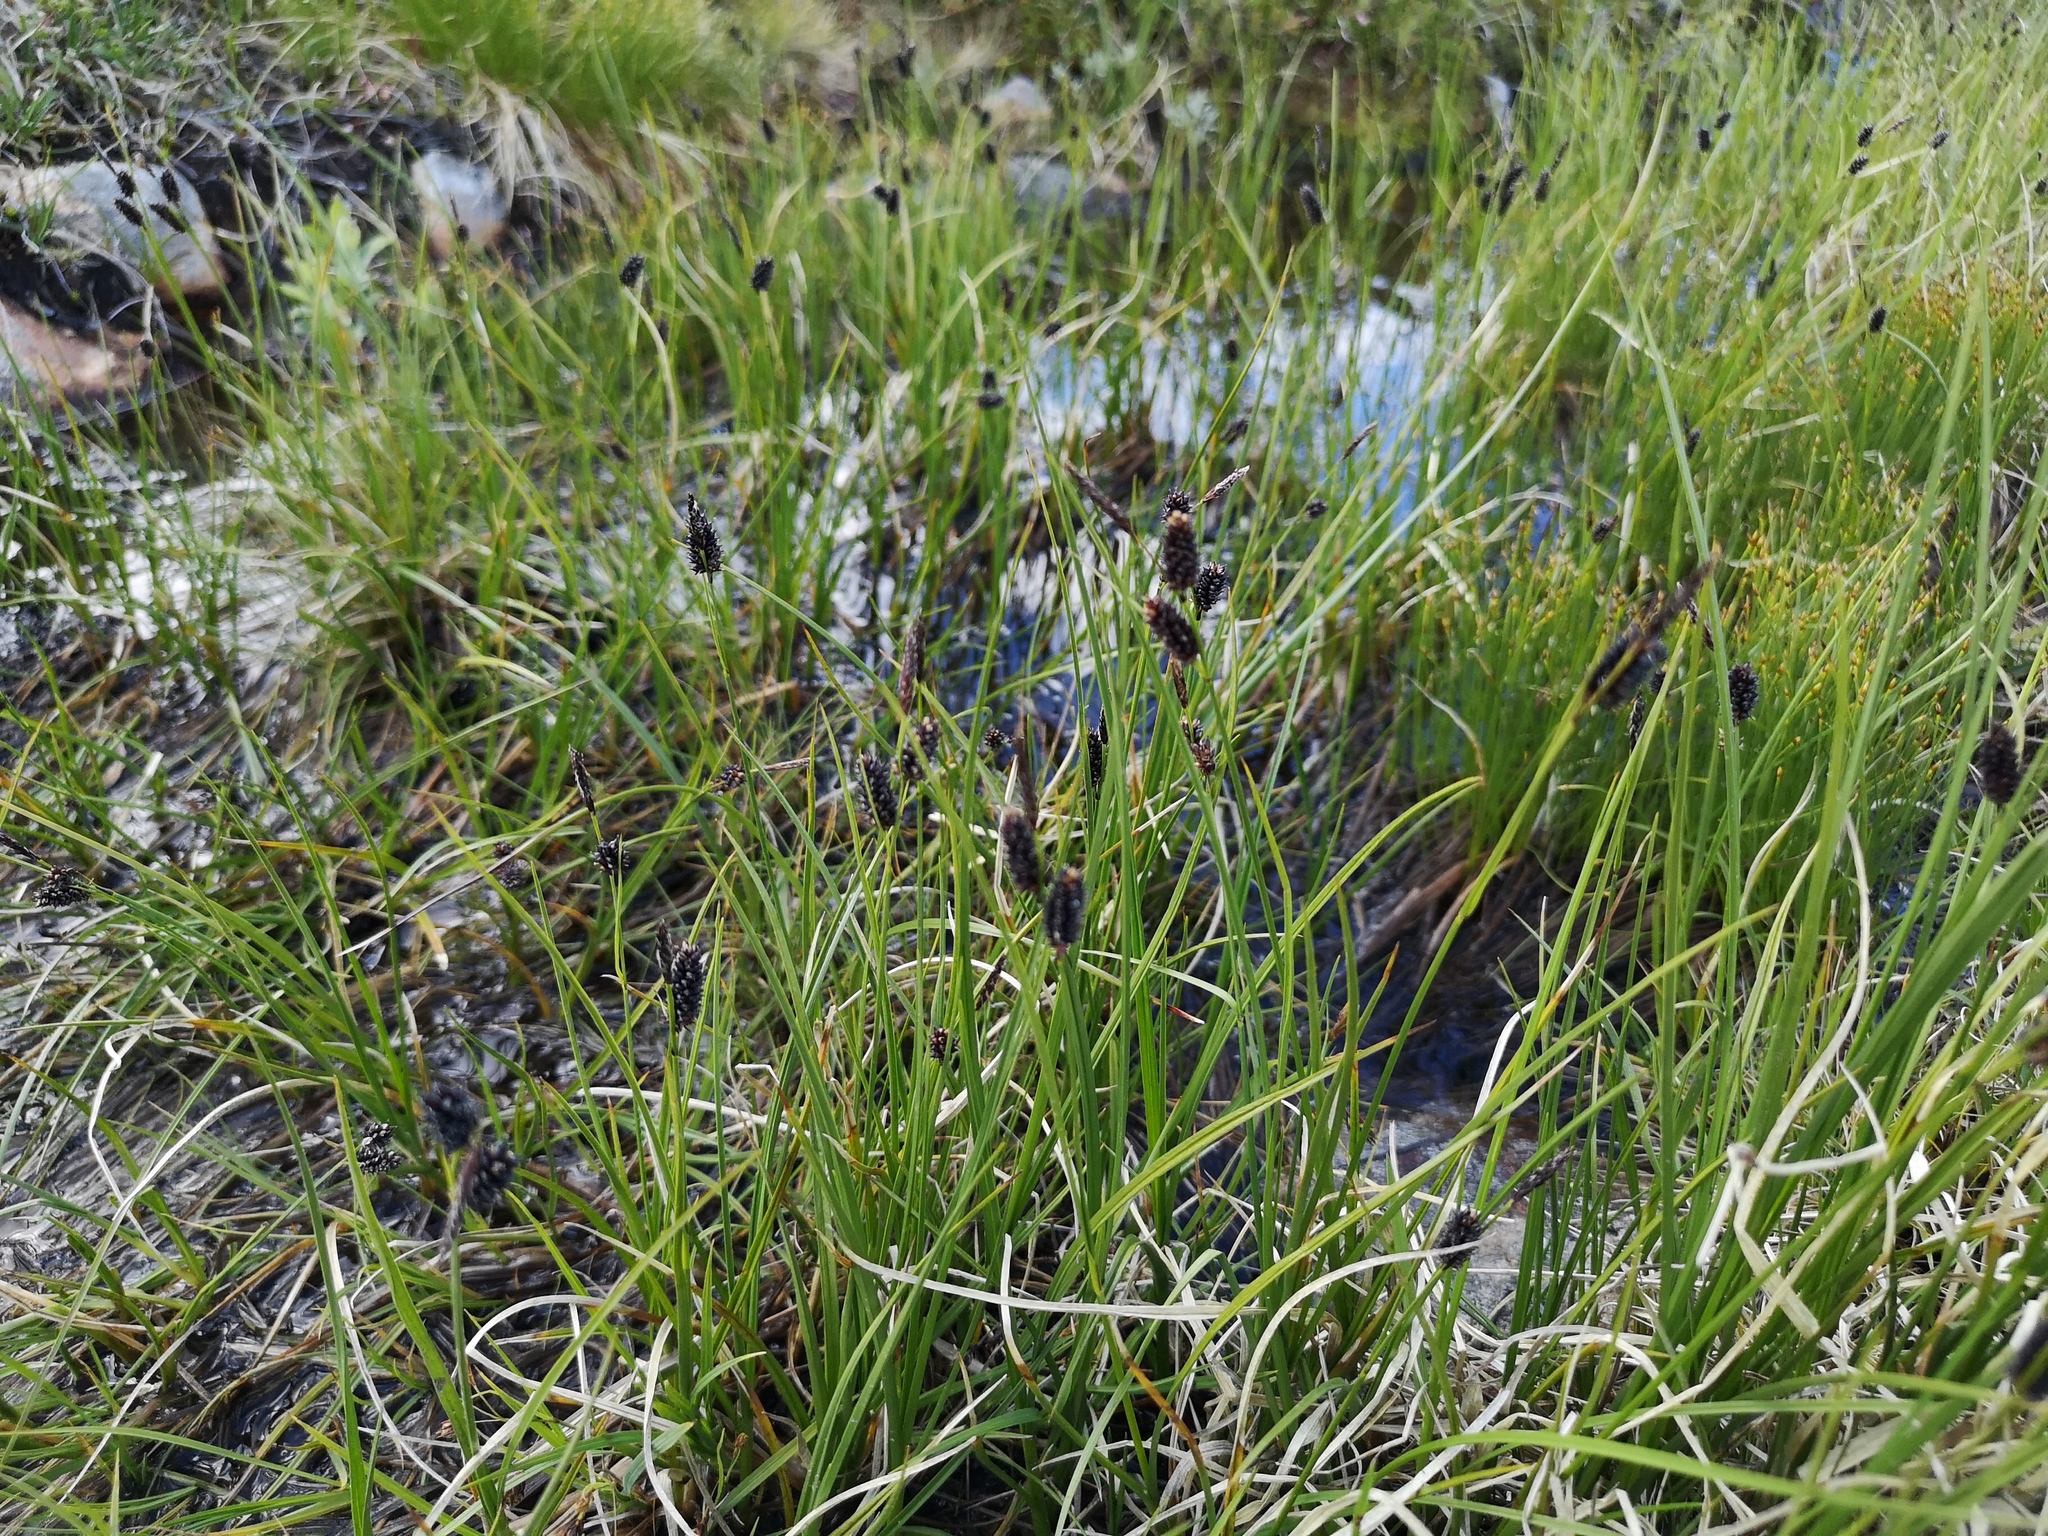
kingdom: Plantae
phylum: Tracheophyta
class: Liliopsida
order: Poales
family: Cyperaceae
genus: Carex
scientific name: Carex saxatilis
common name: Russet sedge
